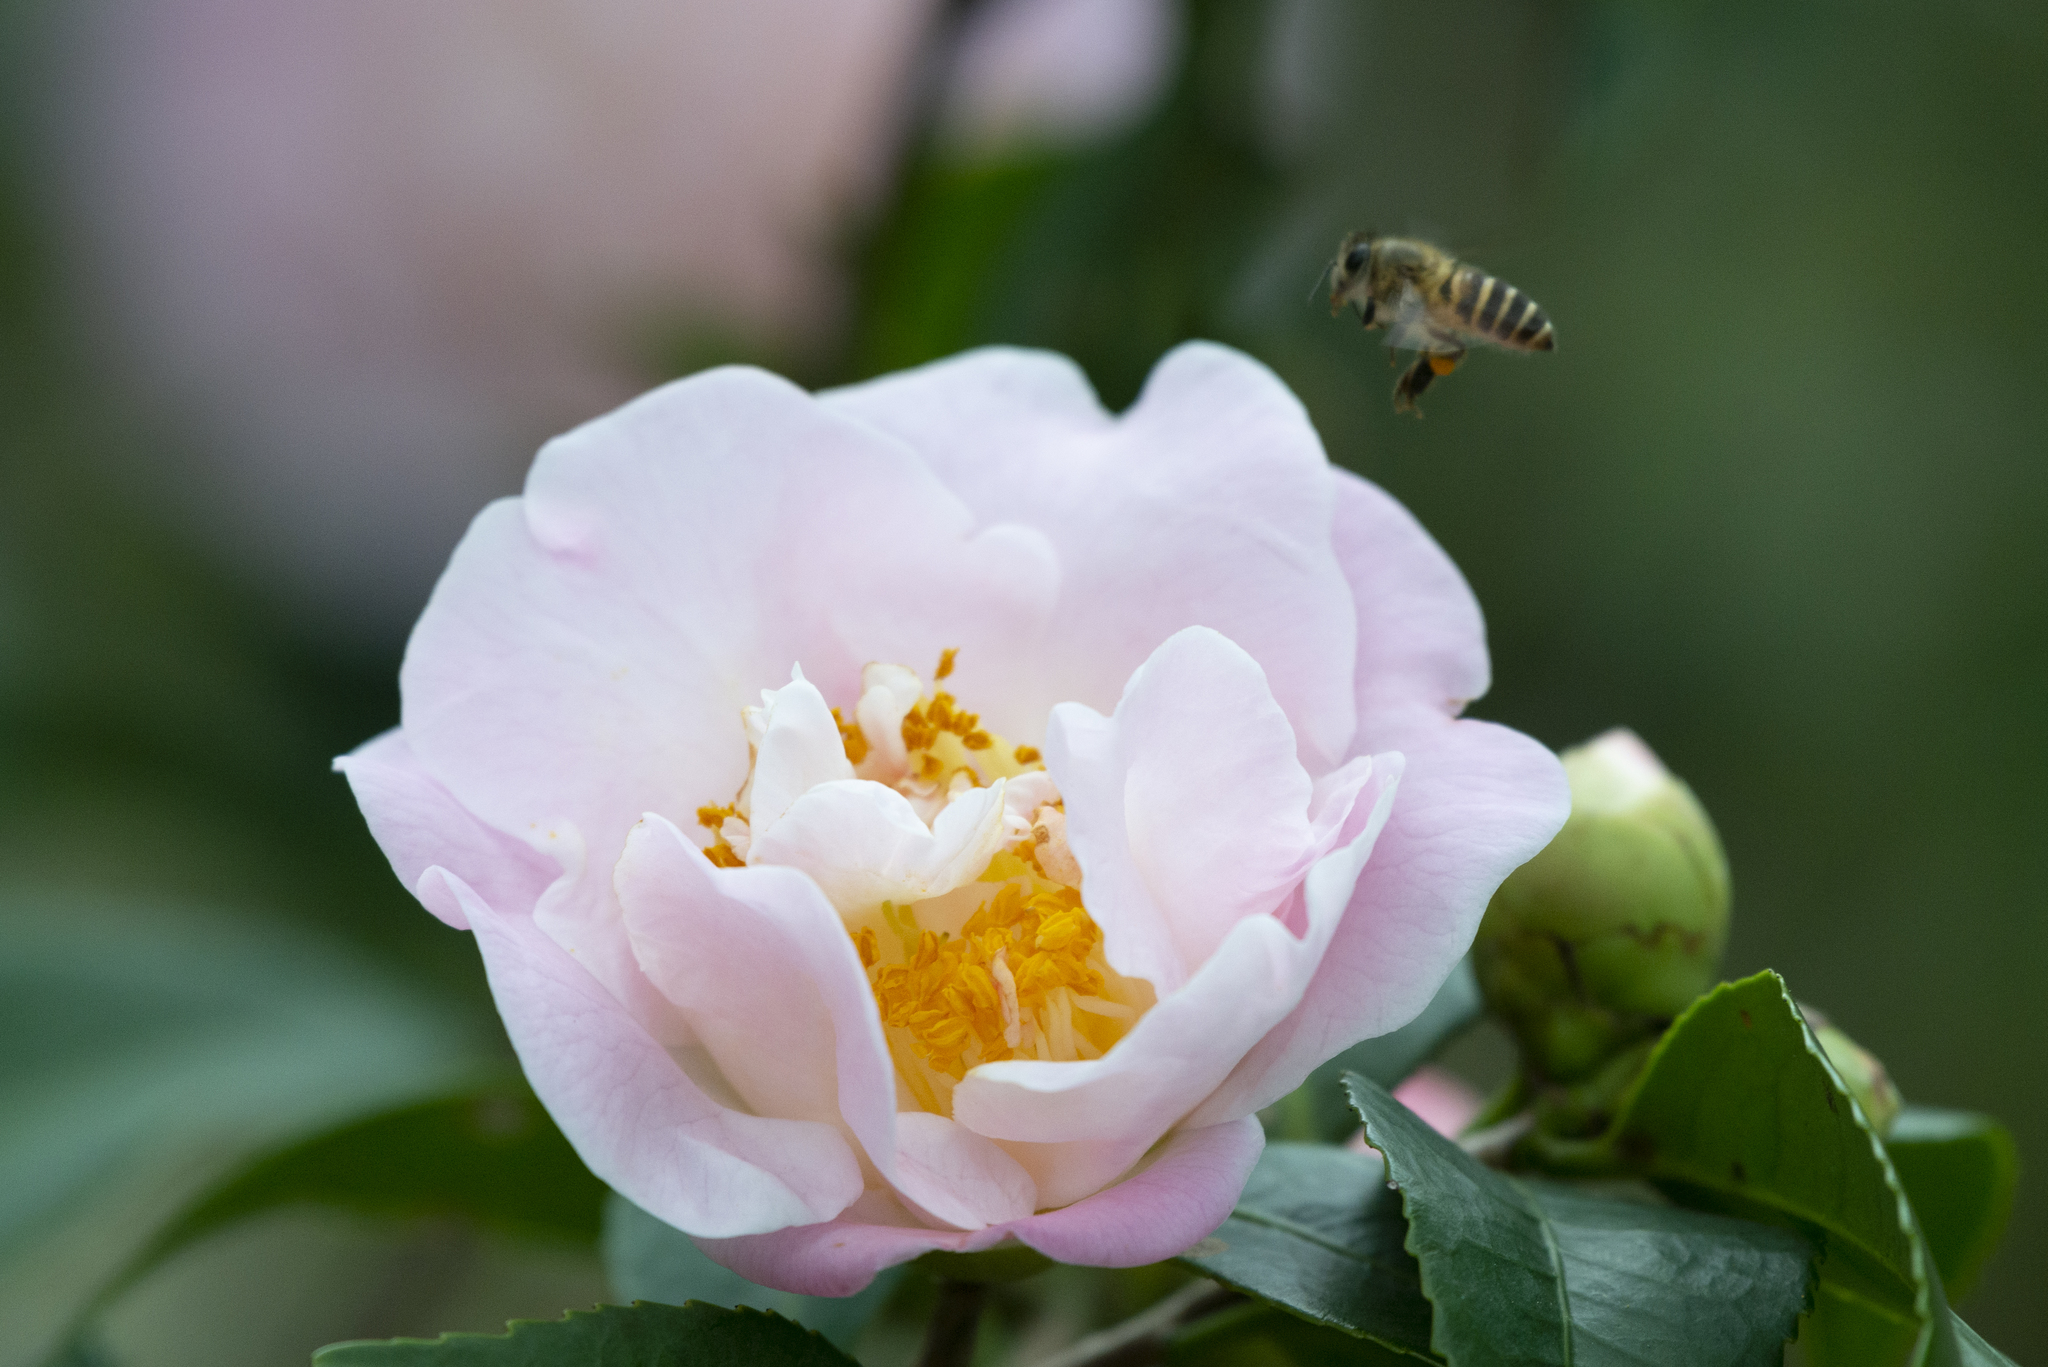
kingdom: Animalia
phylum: Arthropoda
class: Insecta
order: Hymenoptera
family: Apidae
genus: Apis
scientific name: Apis cerana
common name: Honey bee
